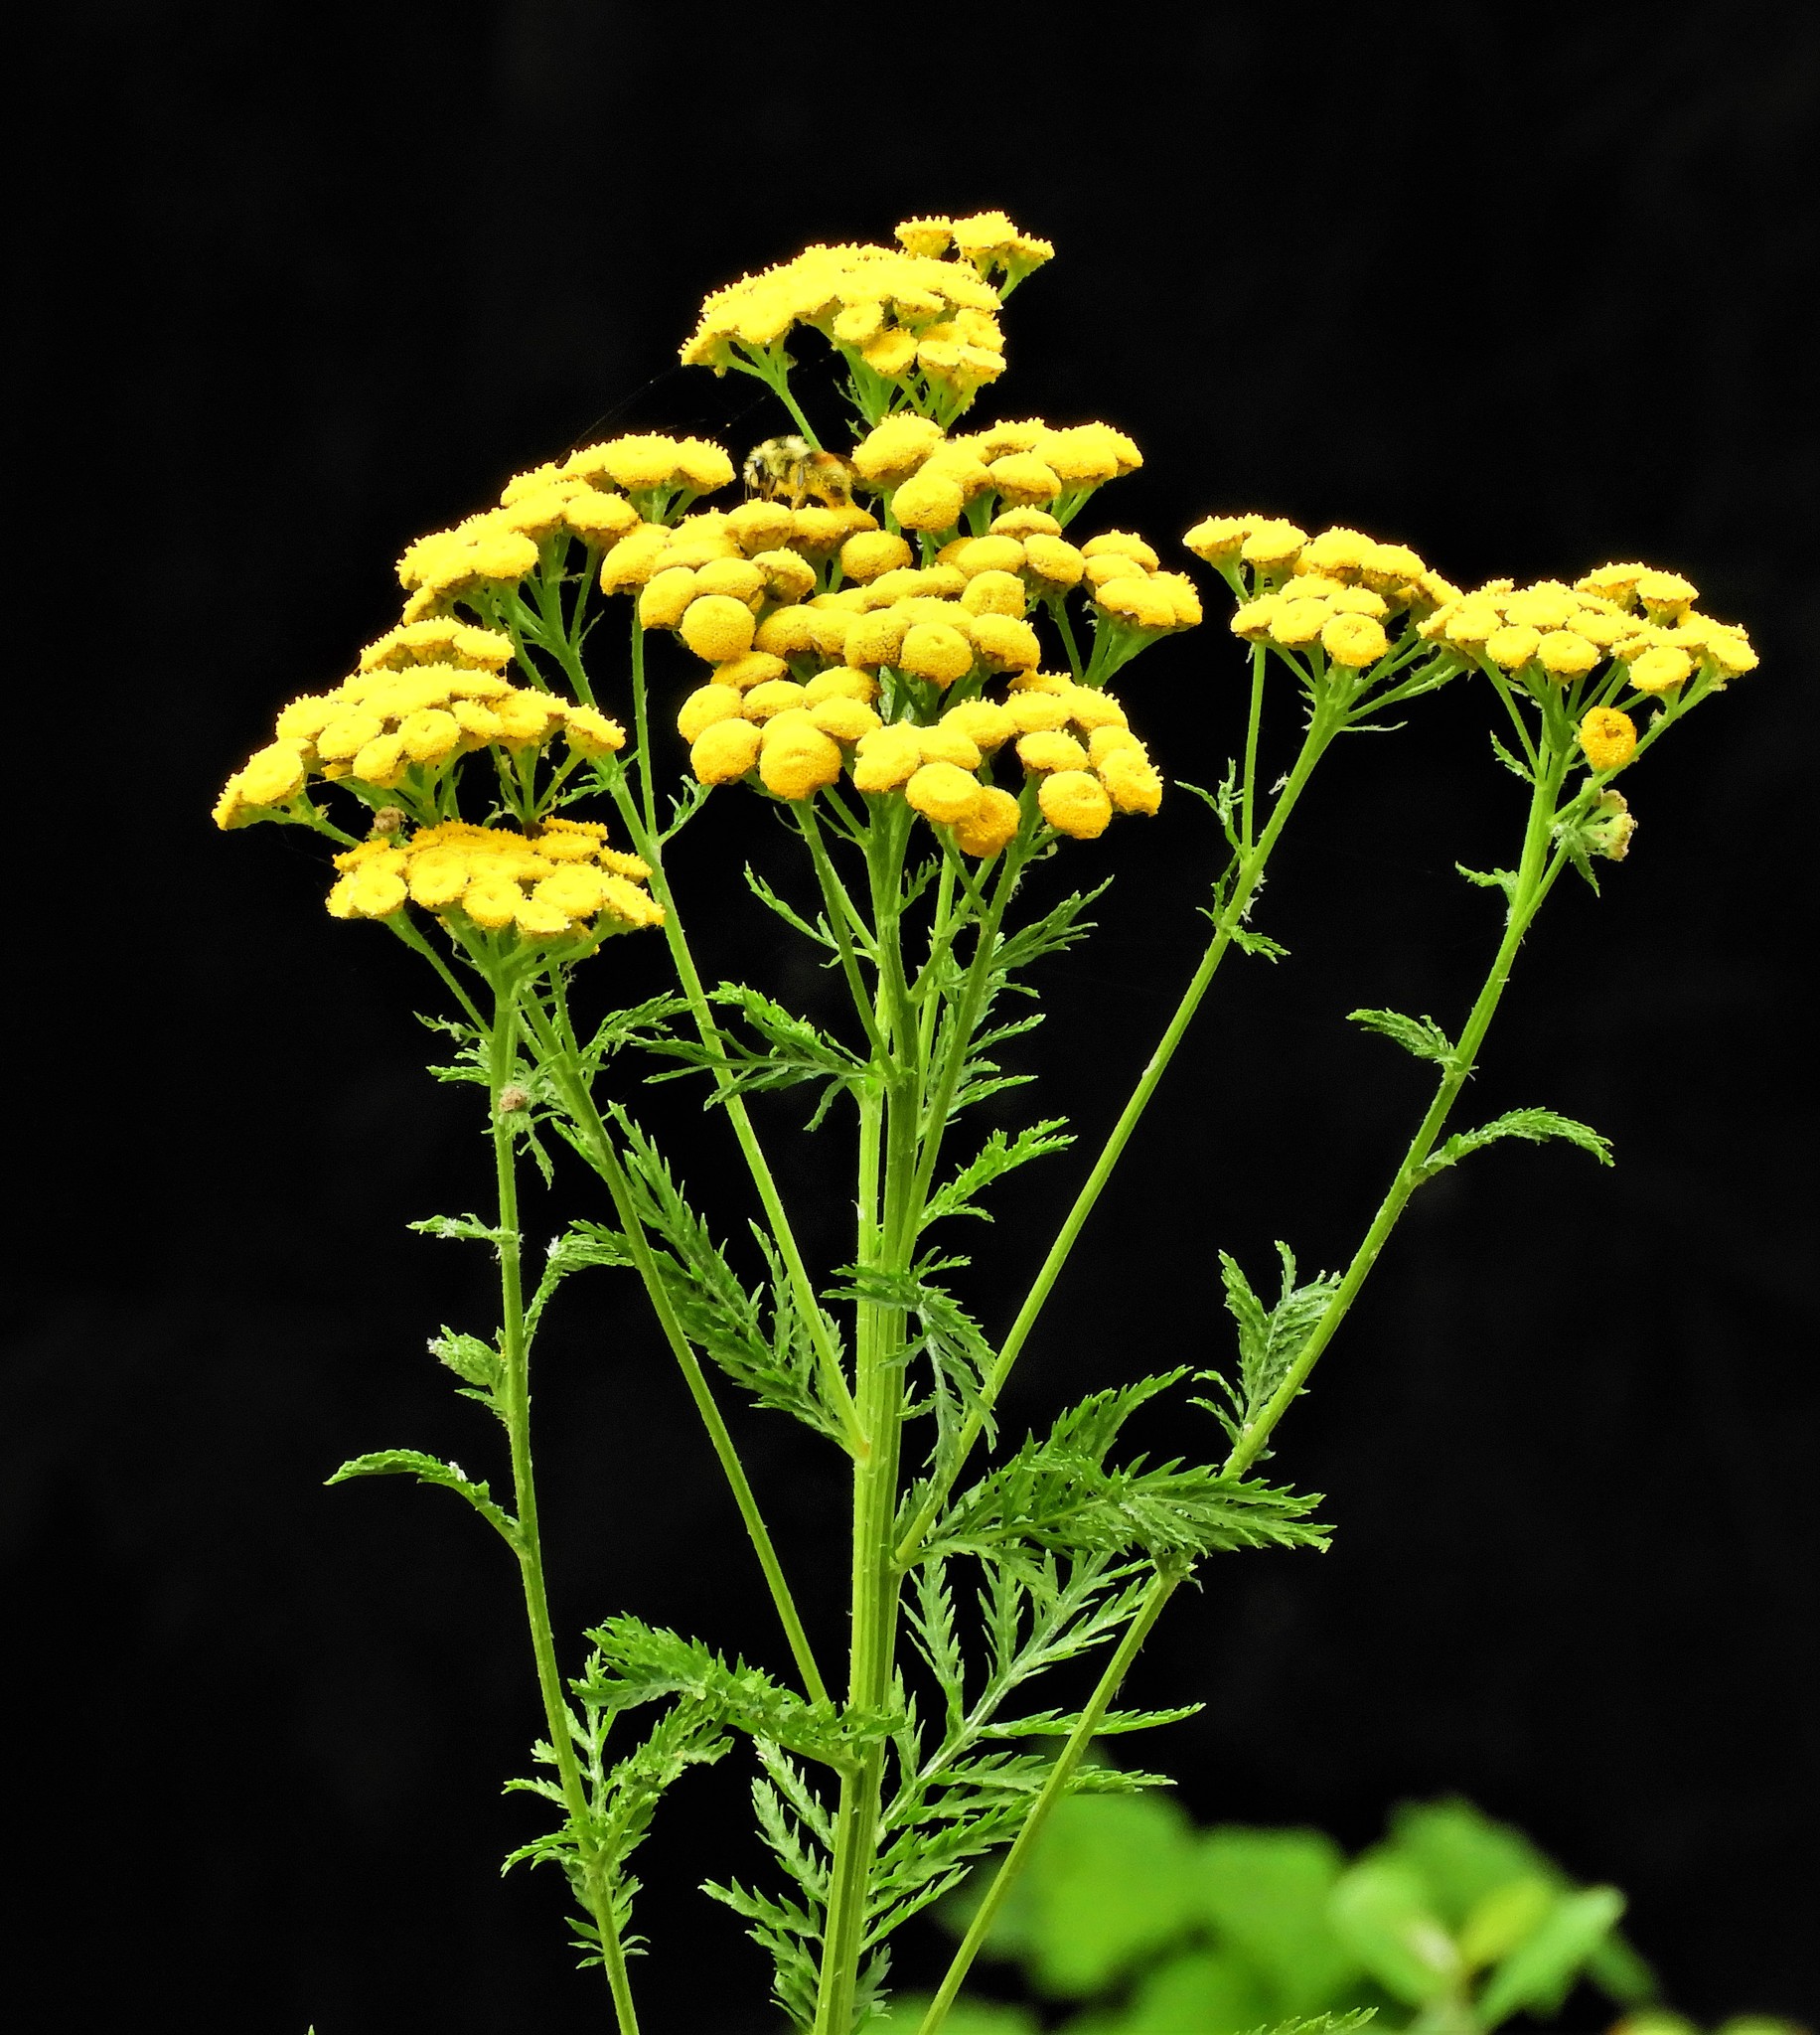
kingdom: Plantae
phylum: Tracheophyta
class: Magnoliopsida
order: Asterales
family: Asteraceae
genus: Tanacetum
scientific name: Tanacetum vulgare
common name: Common tansy
